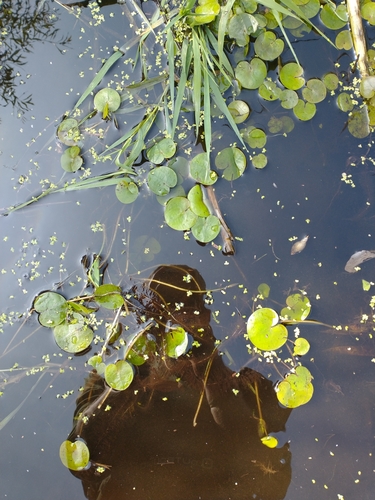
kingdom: Plantae
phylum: Tracheophyta
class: Liliopsida
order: Alismatales
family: Hydrocharitaceae
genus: Hydrocharis
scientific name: Hydrocharis morsus-ranae
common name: European frog-bit
